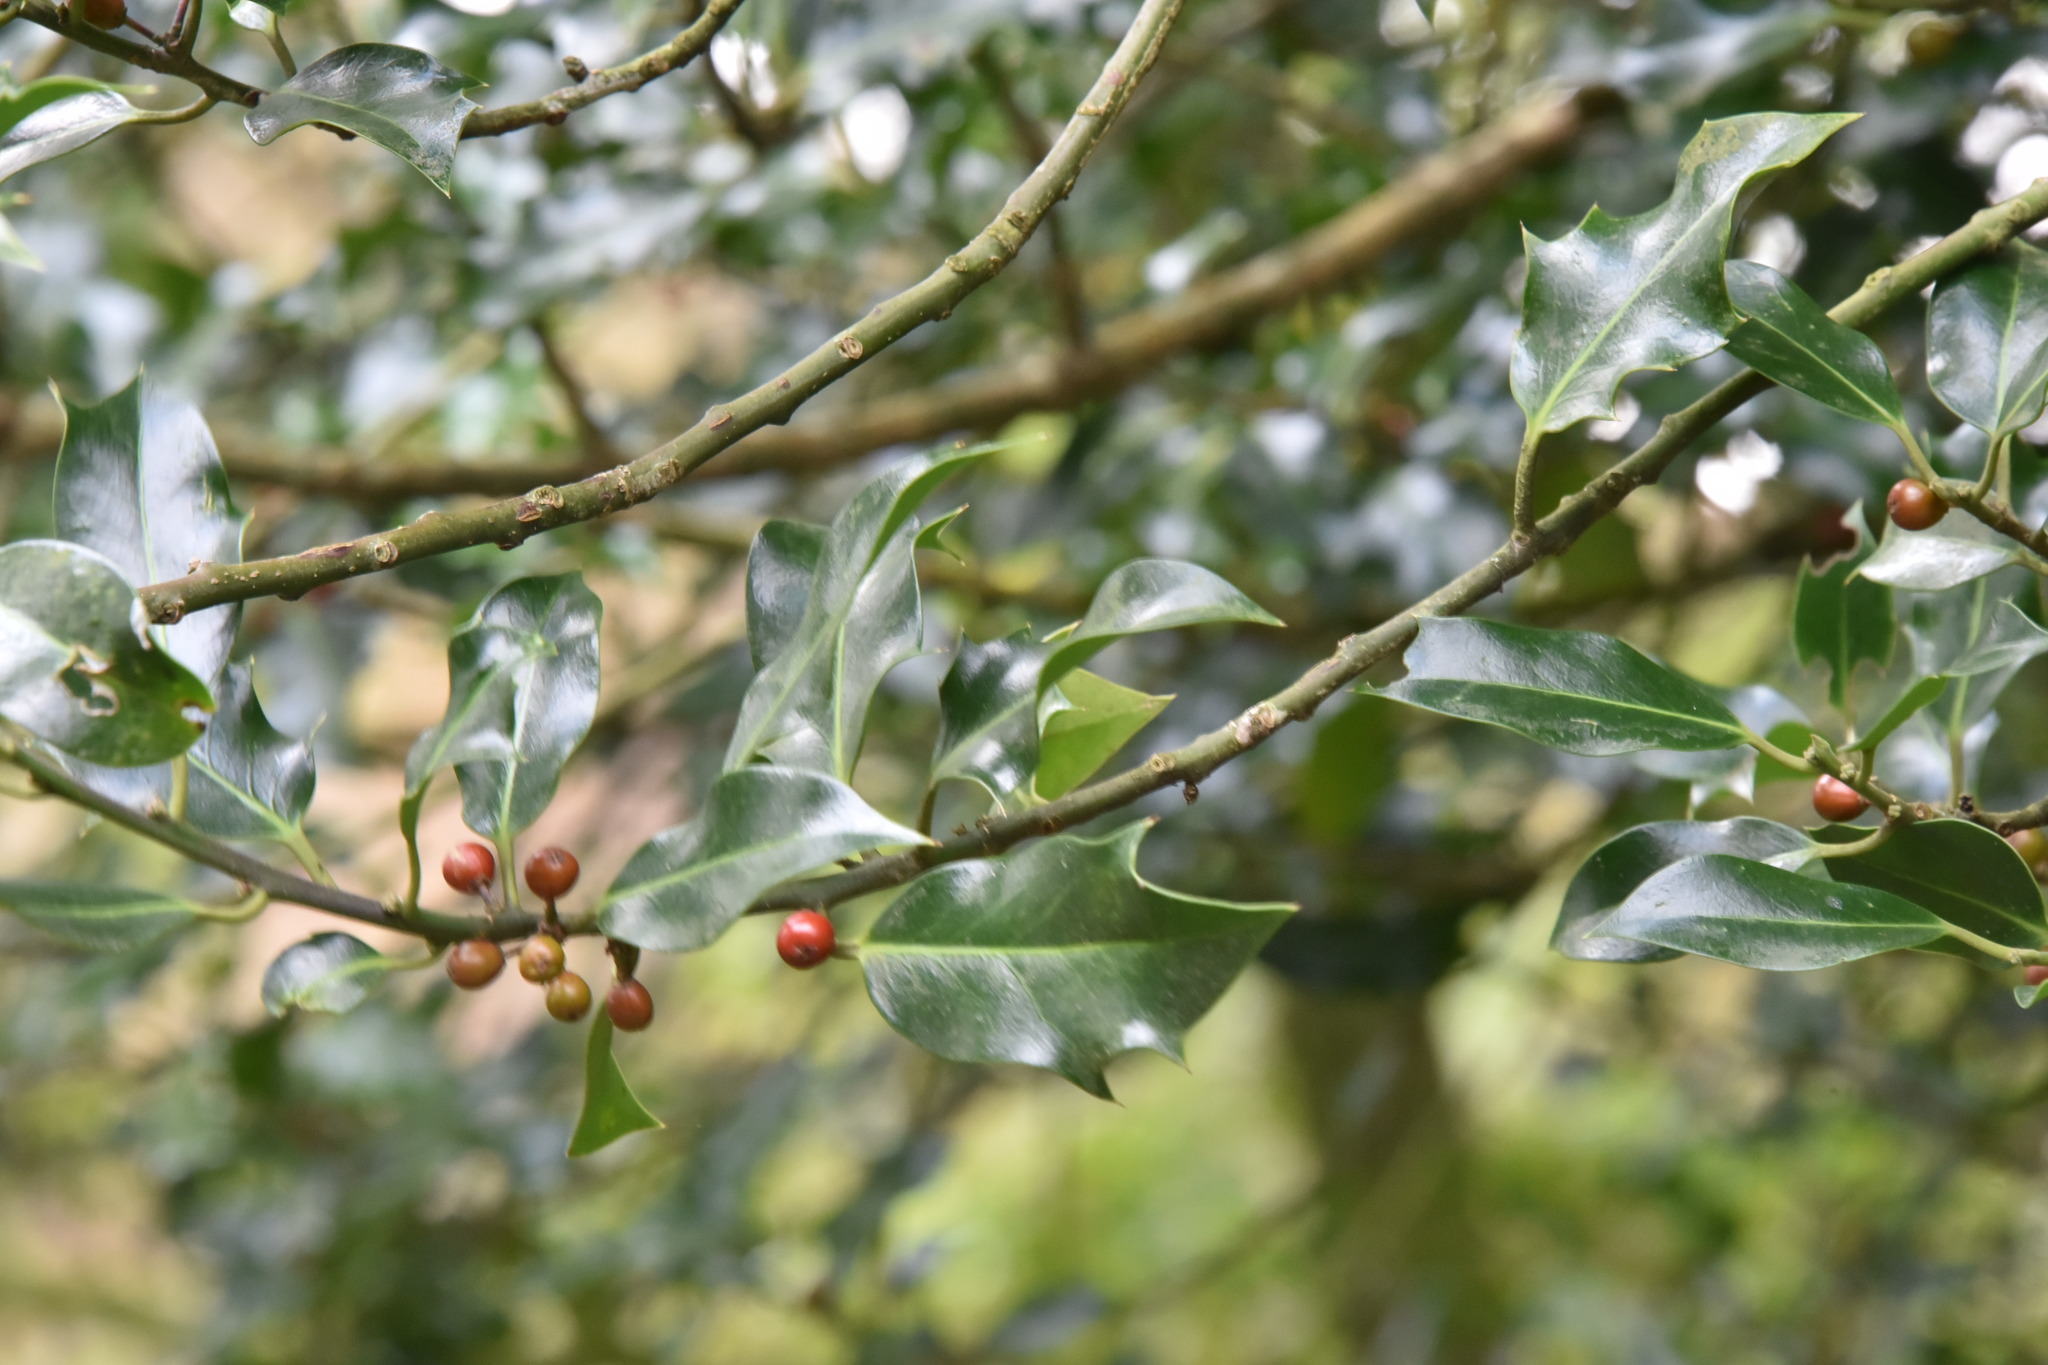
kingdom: Plantae
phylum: Tracheophyta
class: Magnoliopsida
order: Aquifoliales
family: Aquifoliaceae
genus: Ilex
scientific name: Ilex aquifolium
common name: English holly
